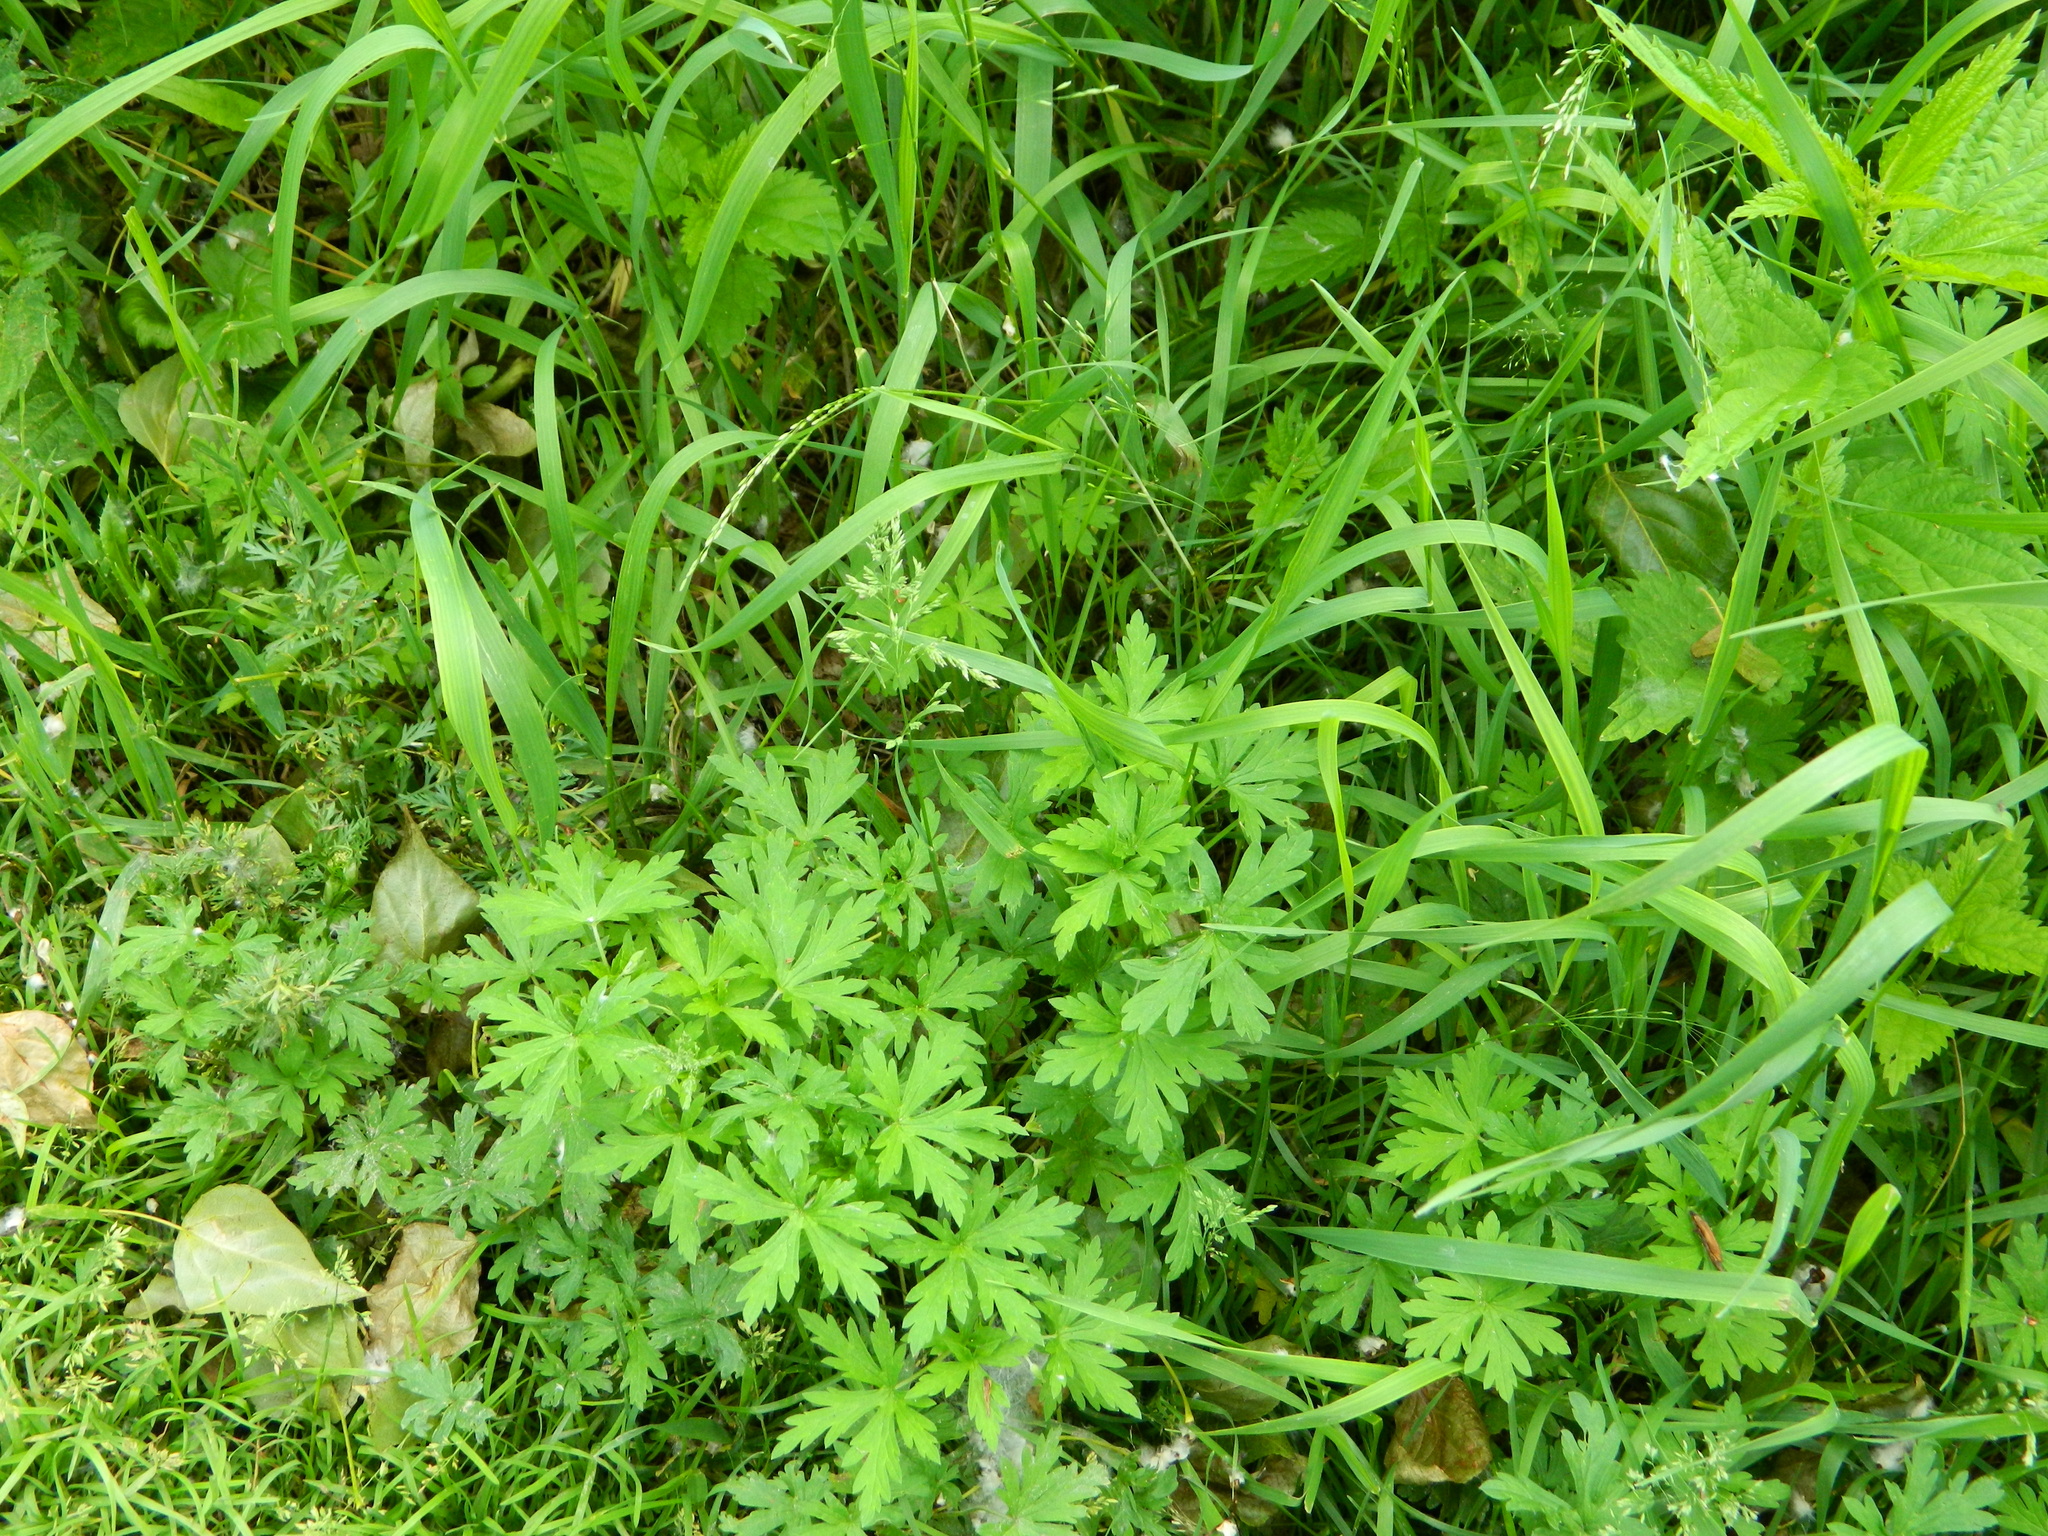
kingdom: Plantae
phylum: Tracheophyta
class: Magnoliopsida
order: Geraniales
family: Geraniaceae
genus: Geranium
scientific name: Geranium sibiricum
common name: Siberian crane's-bill
